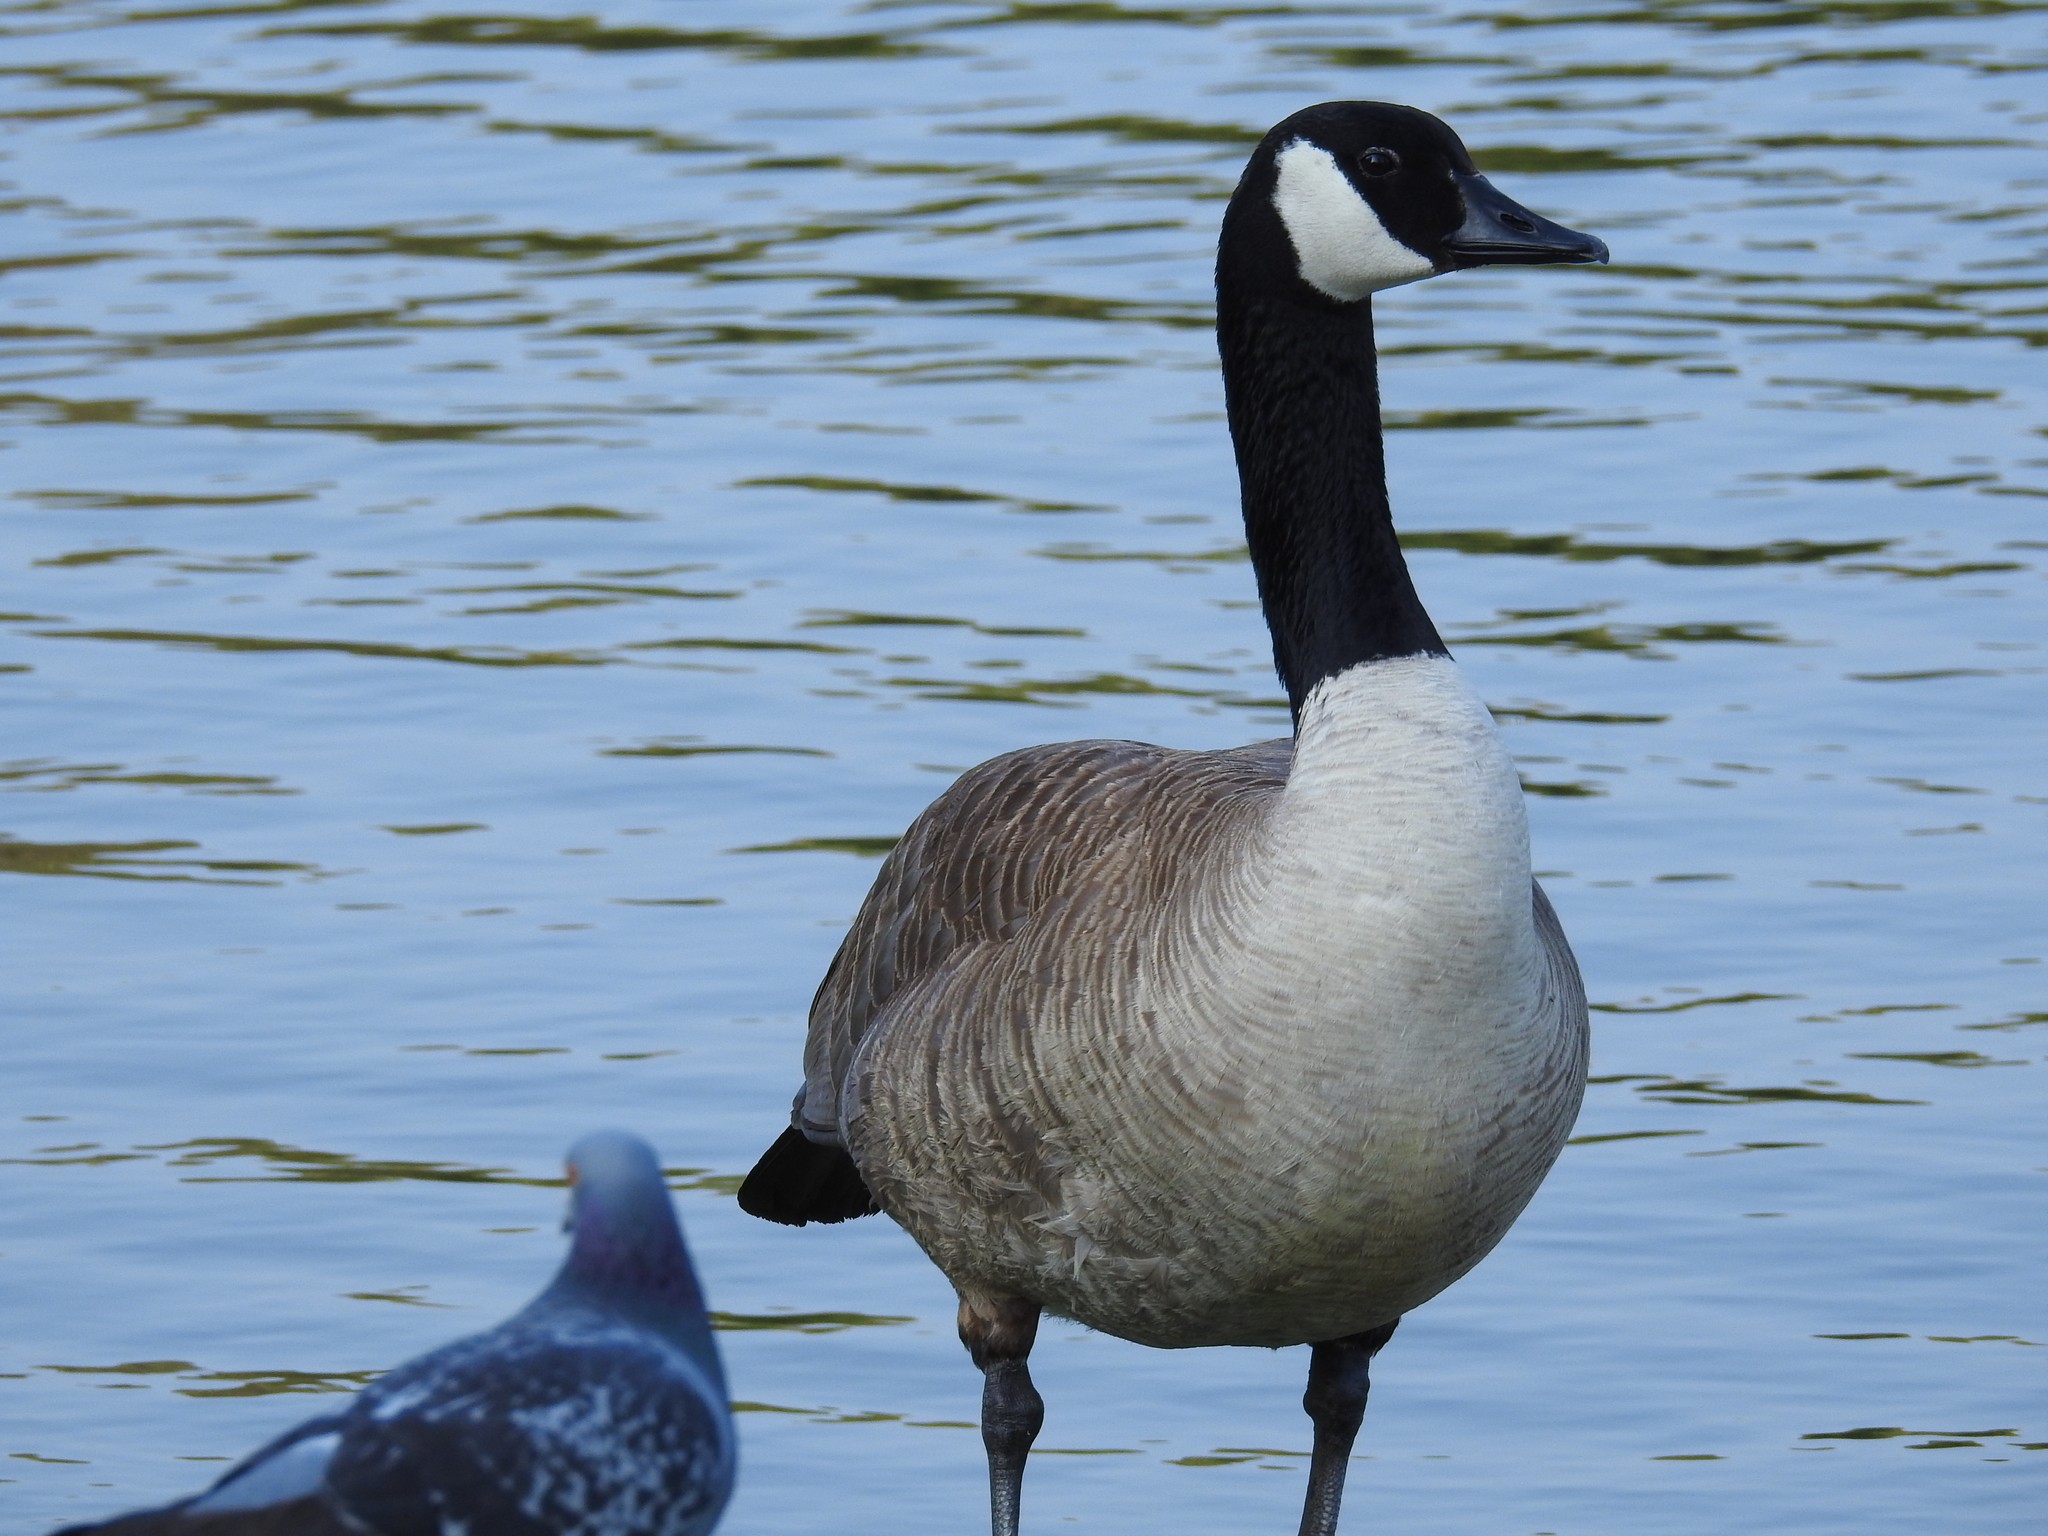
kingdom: Animalia
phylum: Chordata
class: Aves
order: Anseriformes
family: Anatidae
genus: Branta
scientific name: Branta canadensis
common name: Canada goose
